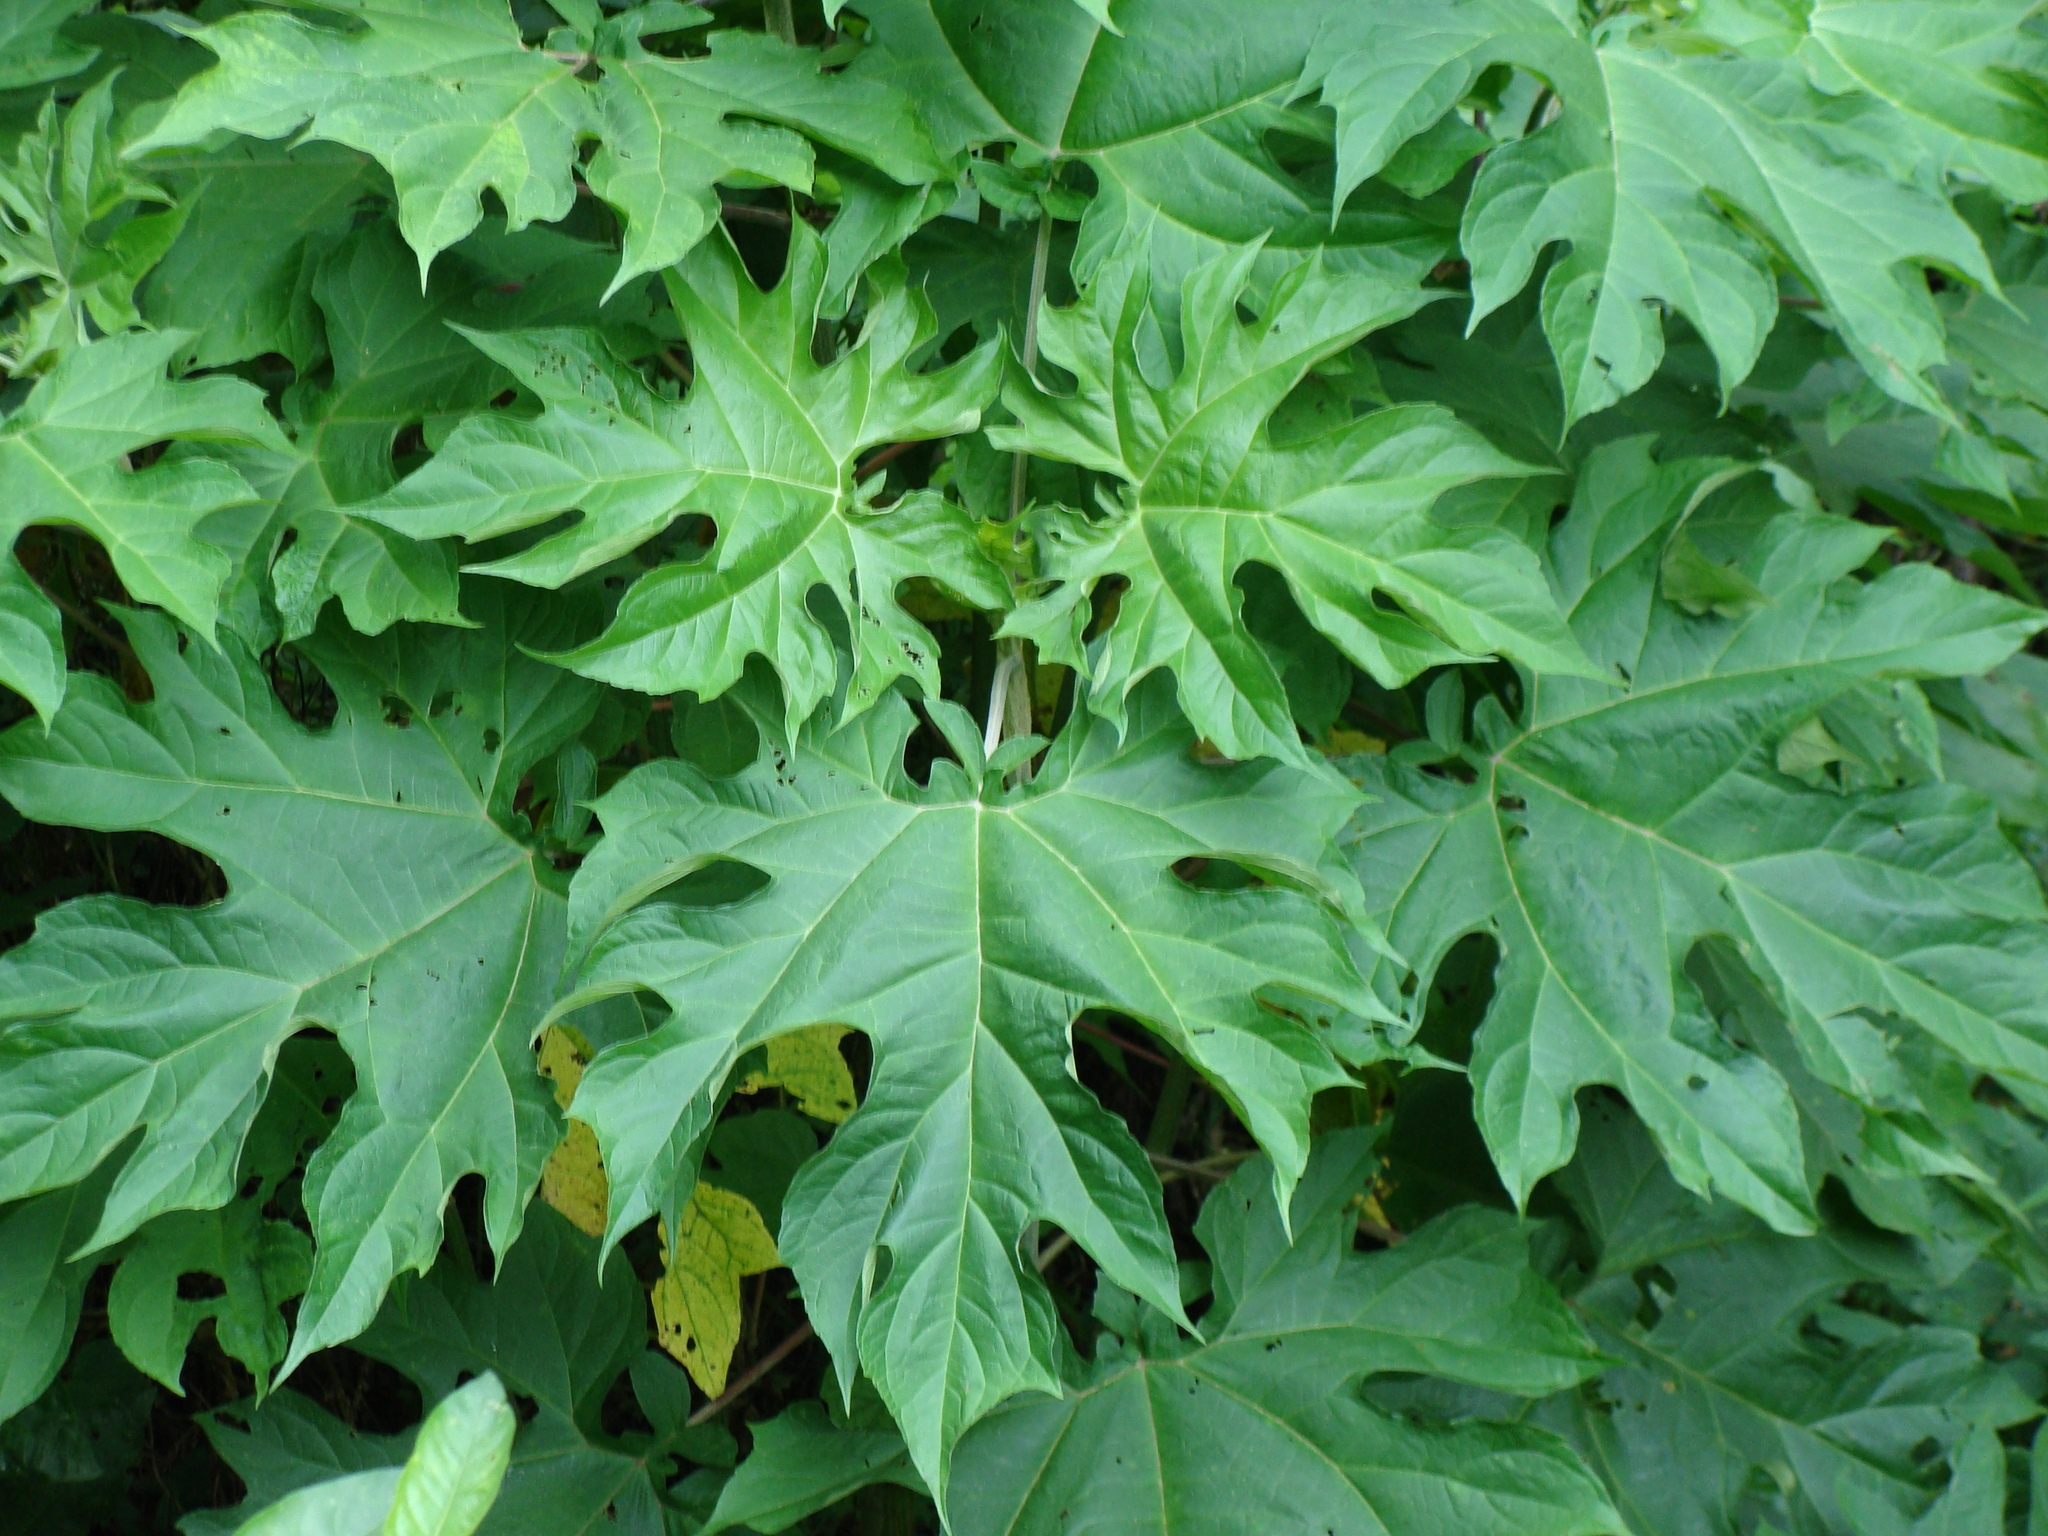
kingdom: Plantae
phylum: Tracheophyta
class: Magnoliopsida
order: Asterales
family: Asteraceae
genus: Montanoa
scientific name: Montanoa hibiscifolia
